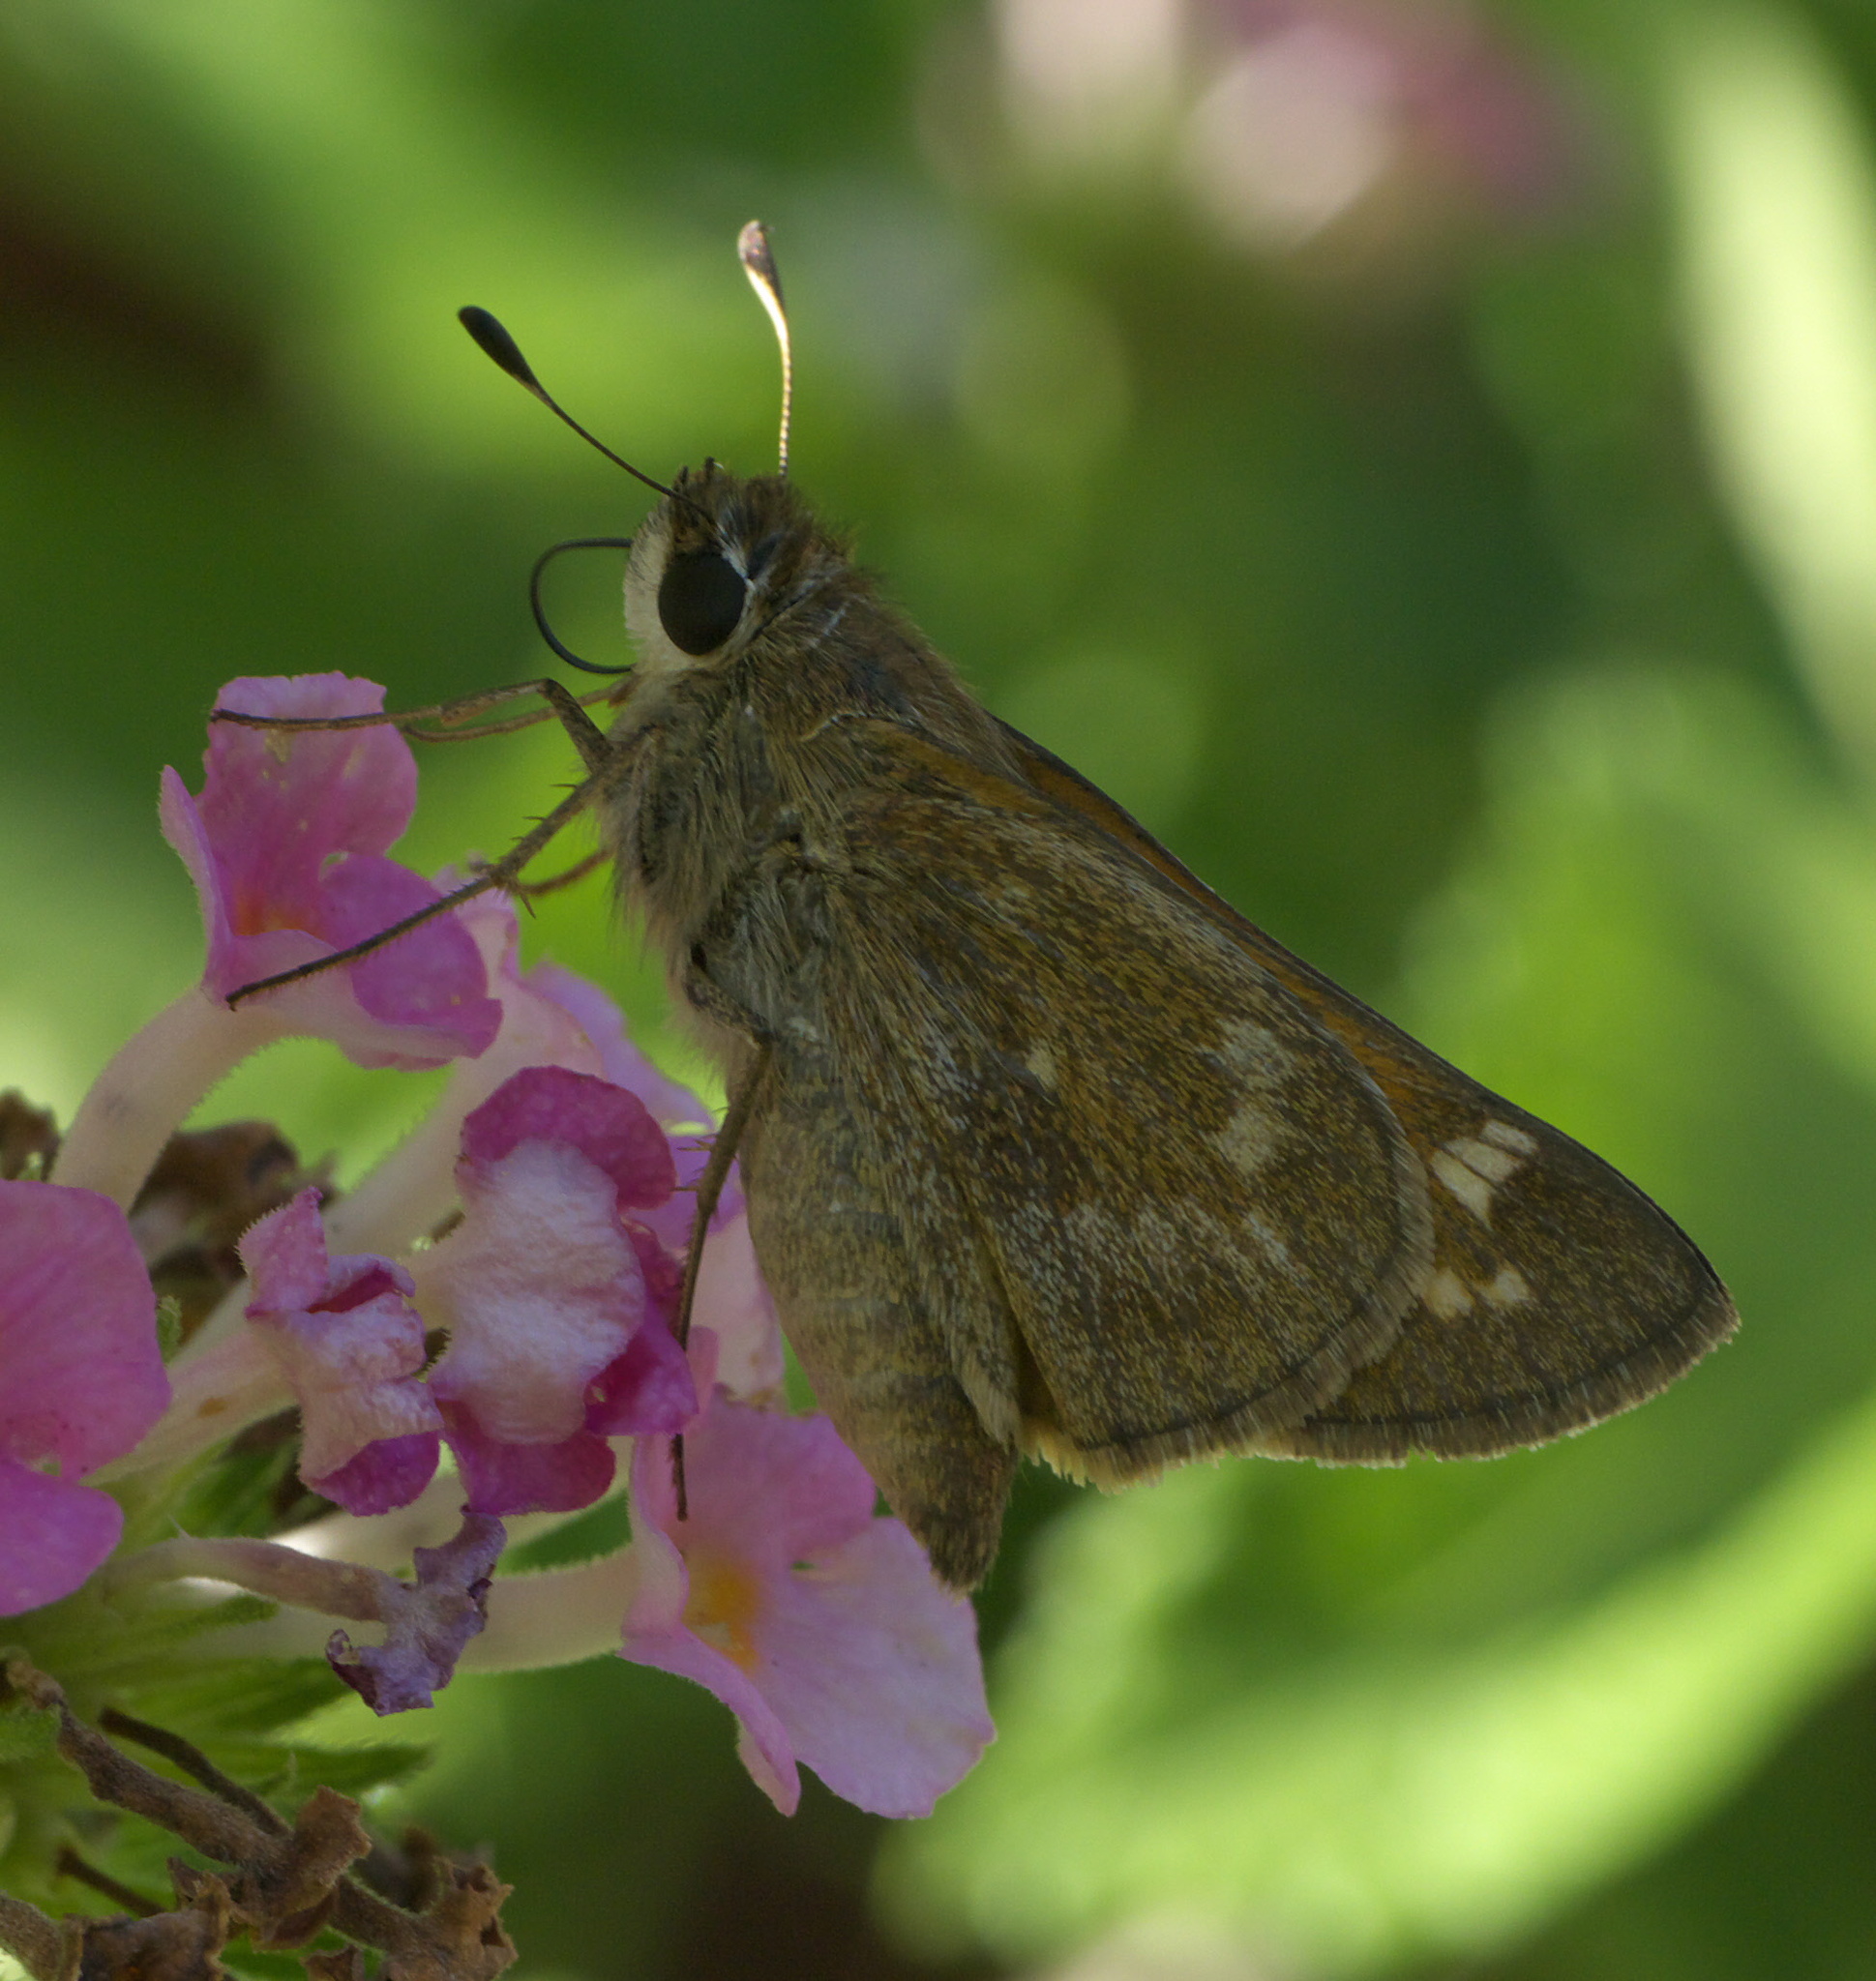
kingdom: Animalia
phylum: Arthropoda
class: Insecta
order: Lepidoptera
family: Hesperiidae
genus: Atalopedes
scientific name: Atalopedes
